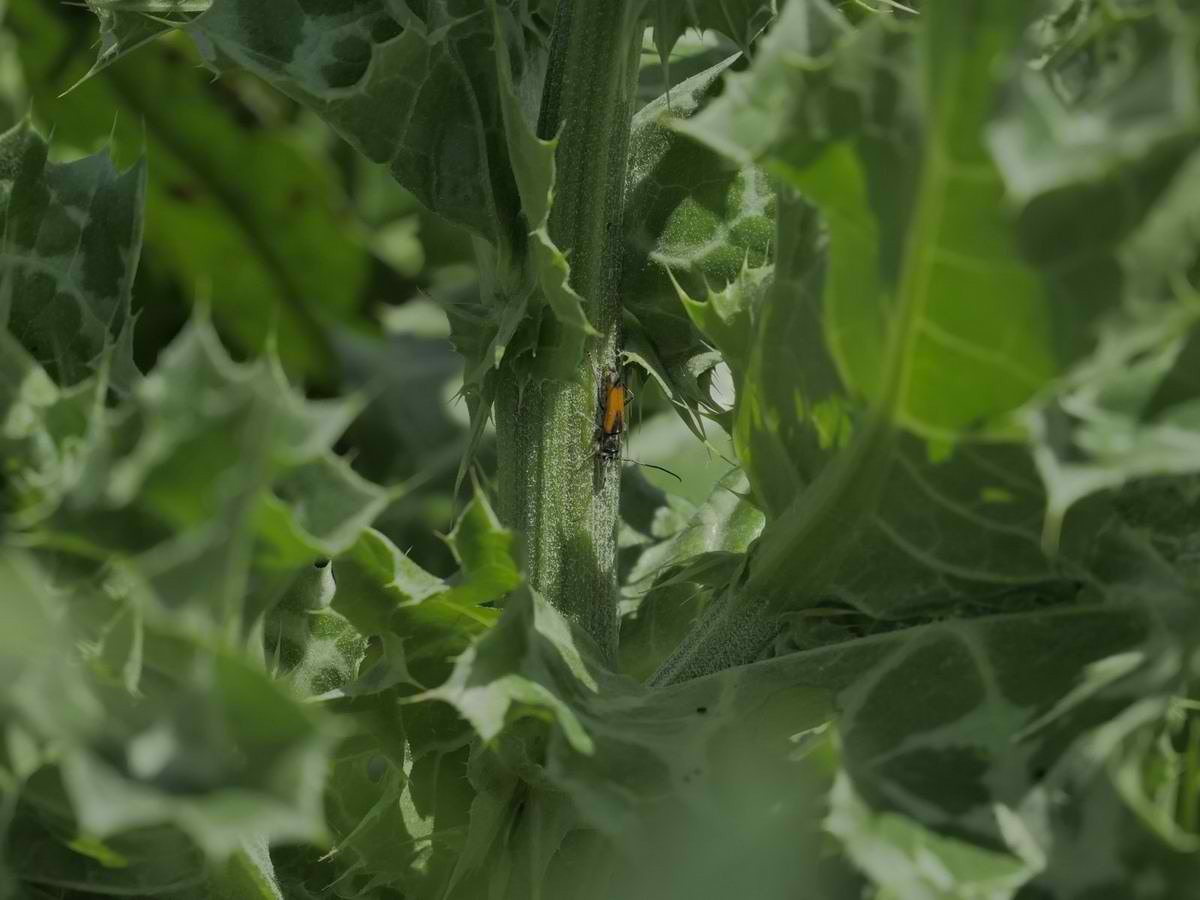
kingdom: Animalia
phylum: Arthropoda
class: Insecta
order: Coleoptera
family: Cerambycidae
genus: Phytoecia
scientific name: Phytoecia pretiosa
